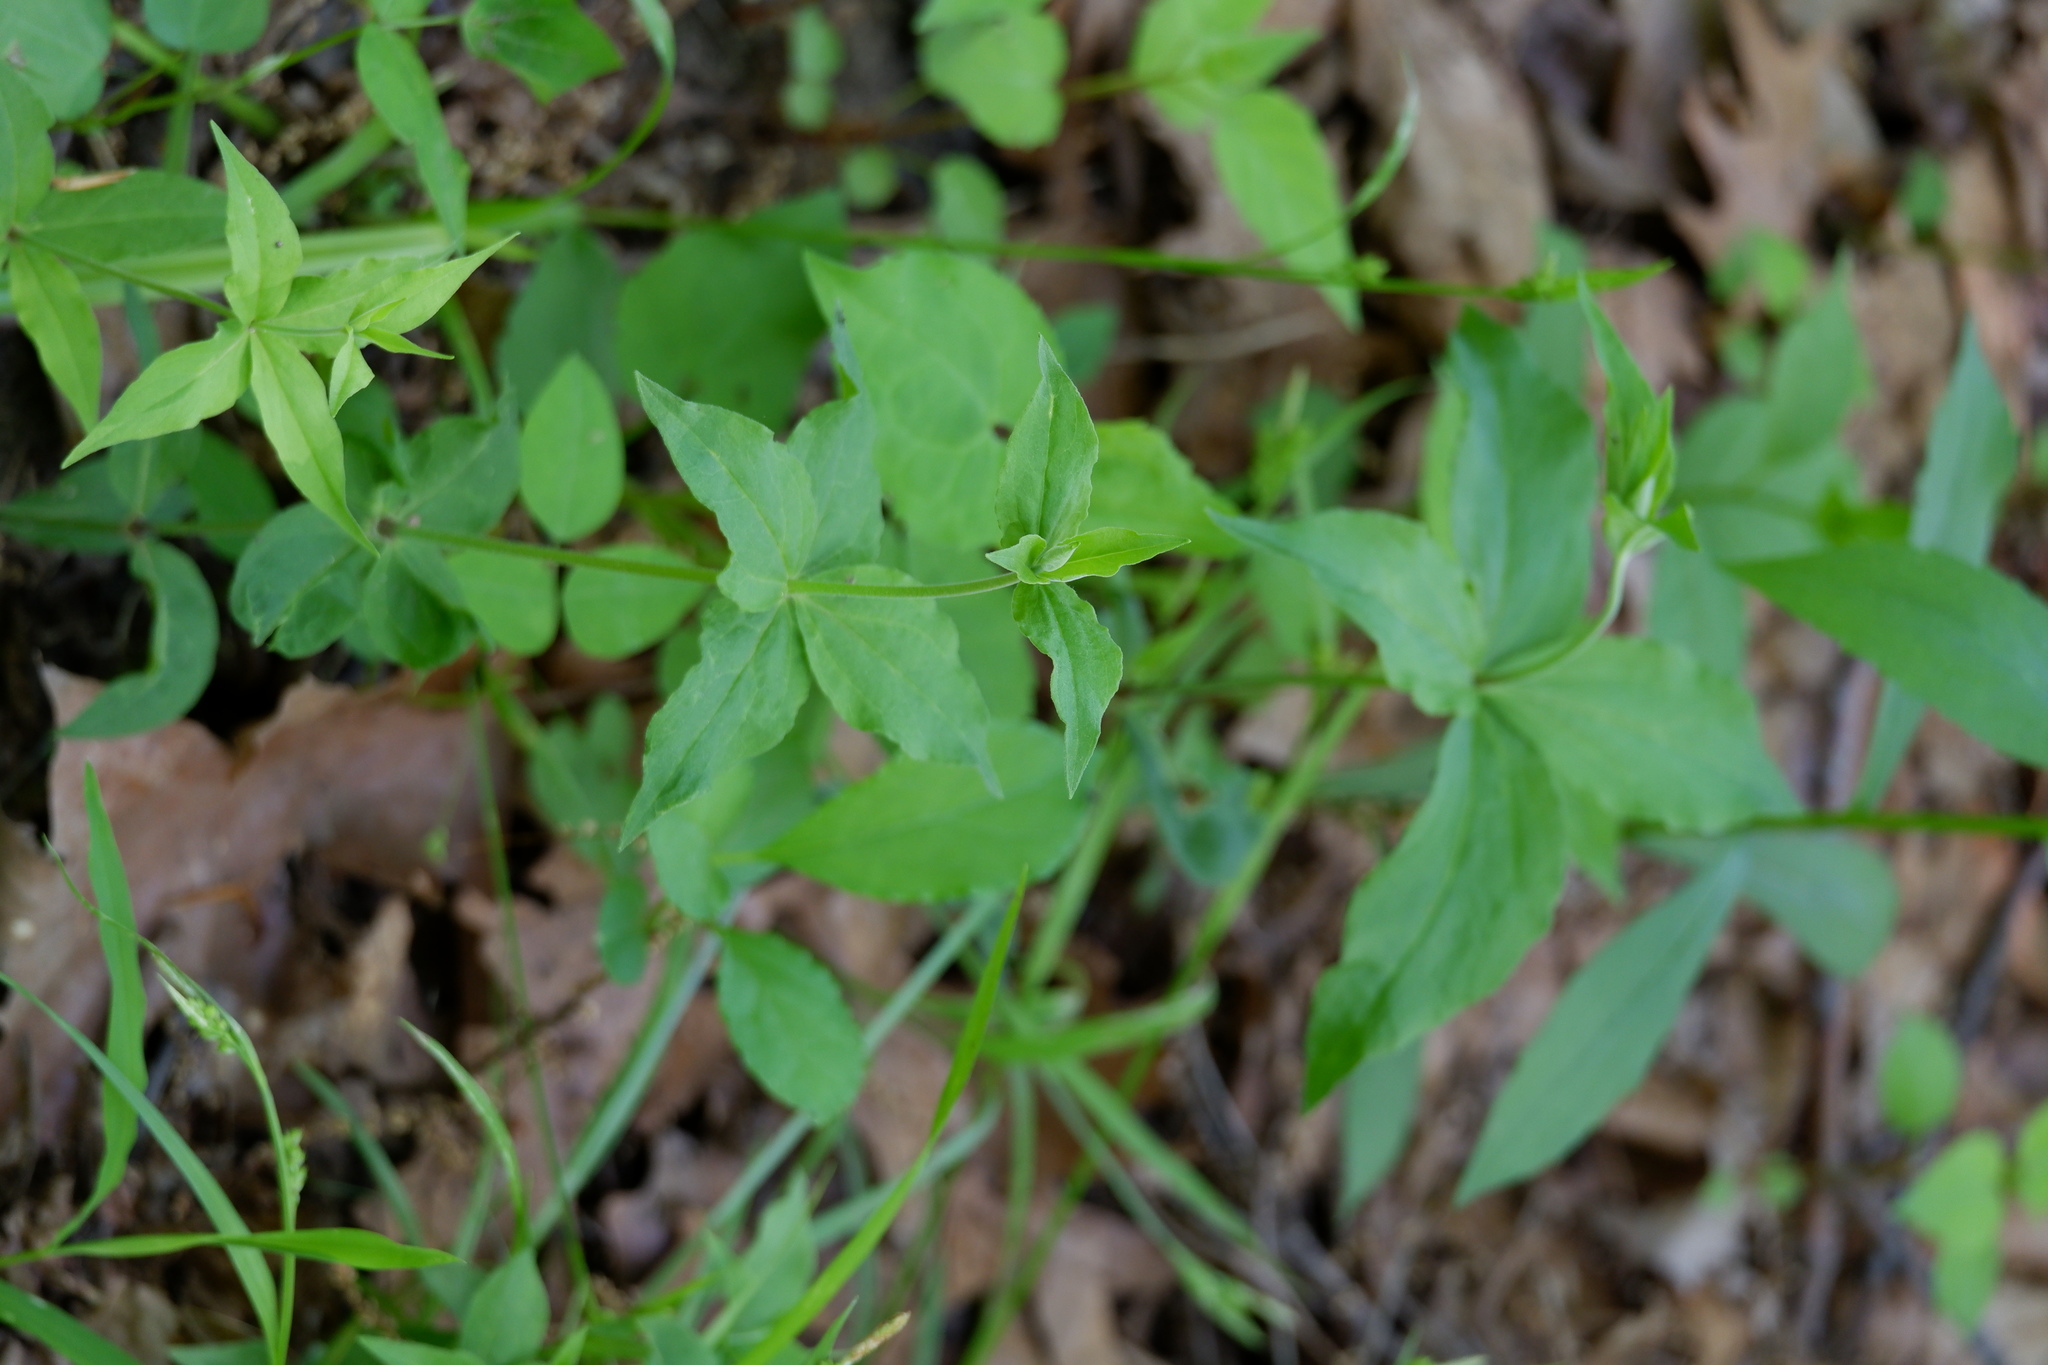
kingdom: Plantae
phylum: Tracheophyta
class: Magnoliopsida
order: Ericales
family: Primulaceae
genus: Lysimachia
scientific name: Lysimachia quadrifolia
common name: Whorled loosestrife
